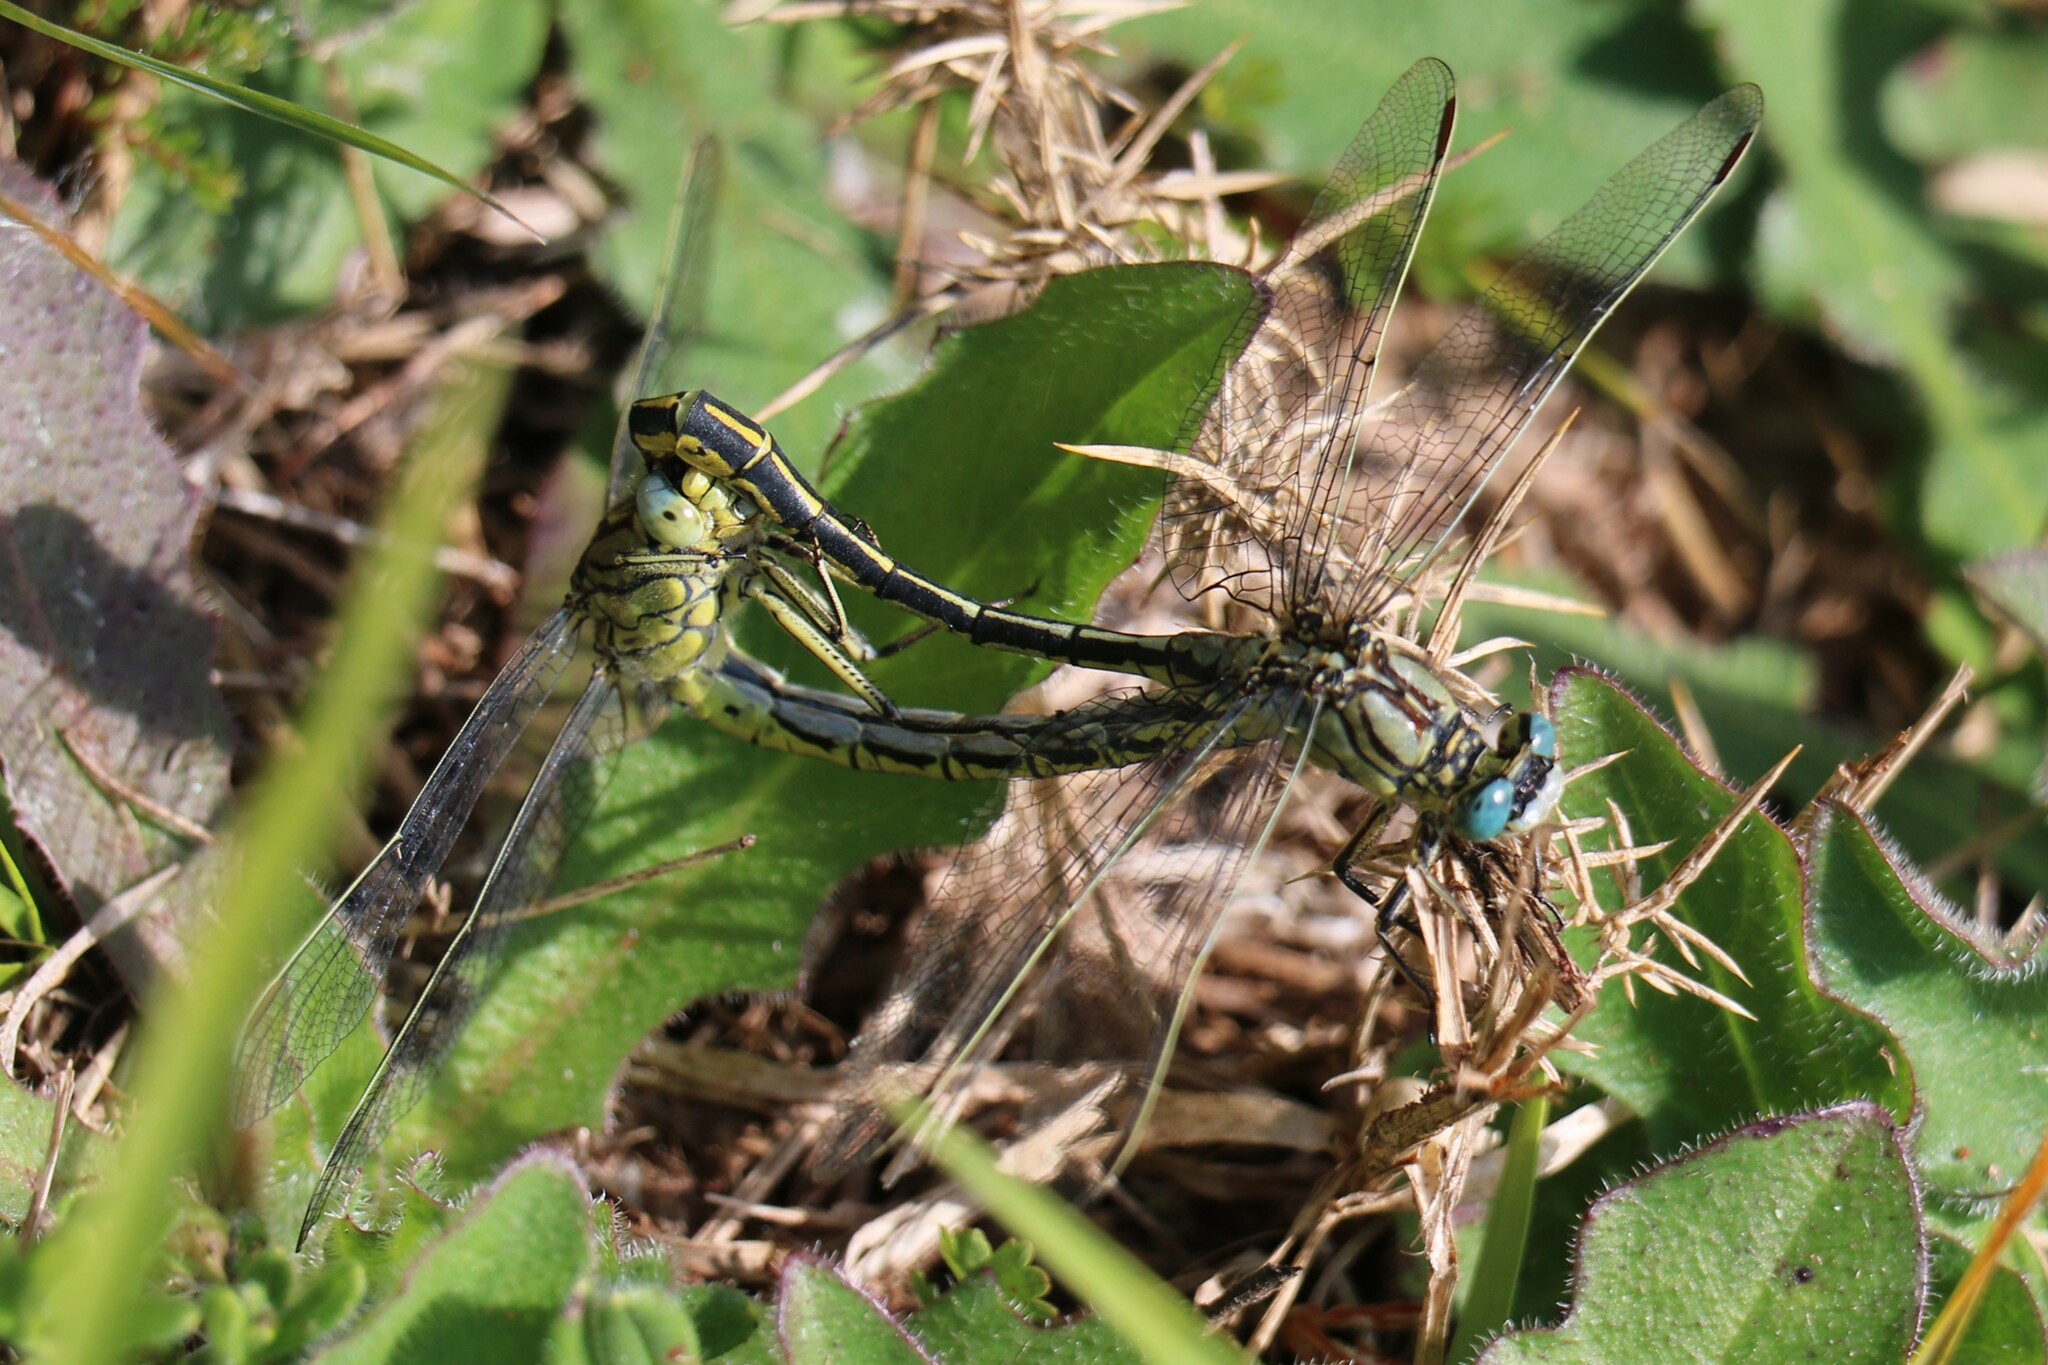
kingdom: Animalia
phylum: Arthropoda
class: Insecta
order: Odonata
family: Gomphidae
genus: Gomphus
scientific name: Gomphus pulchellus
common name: Western clubtail
